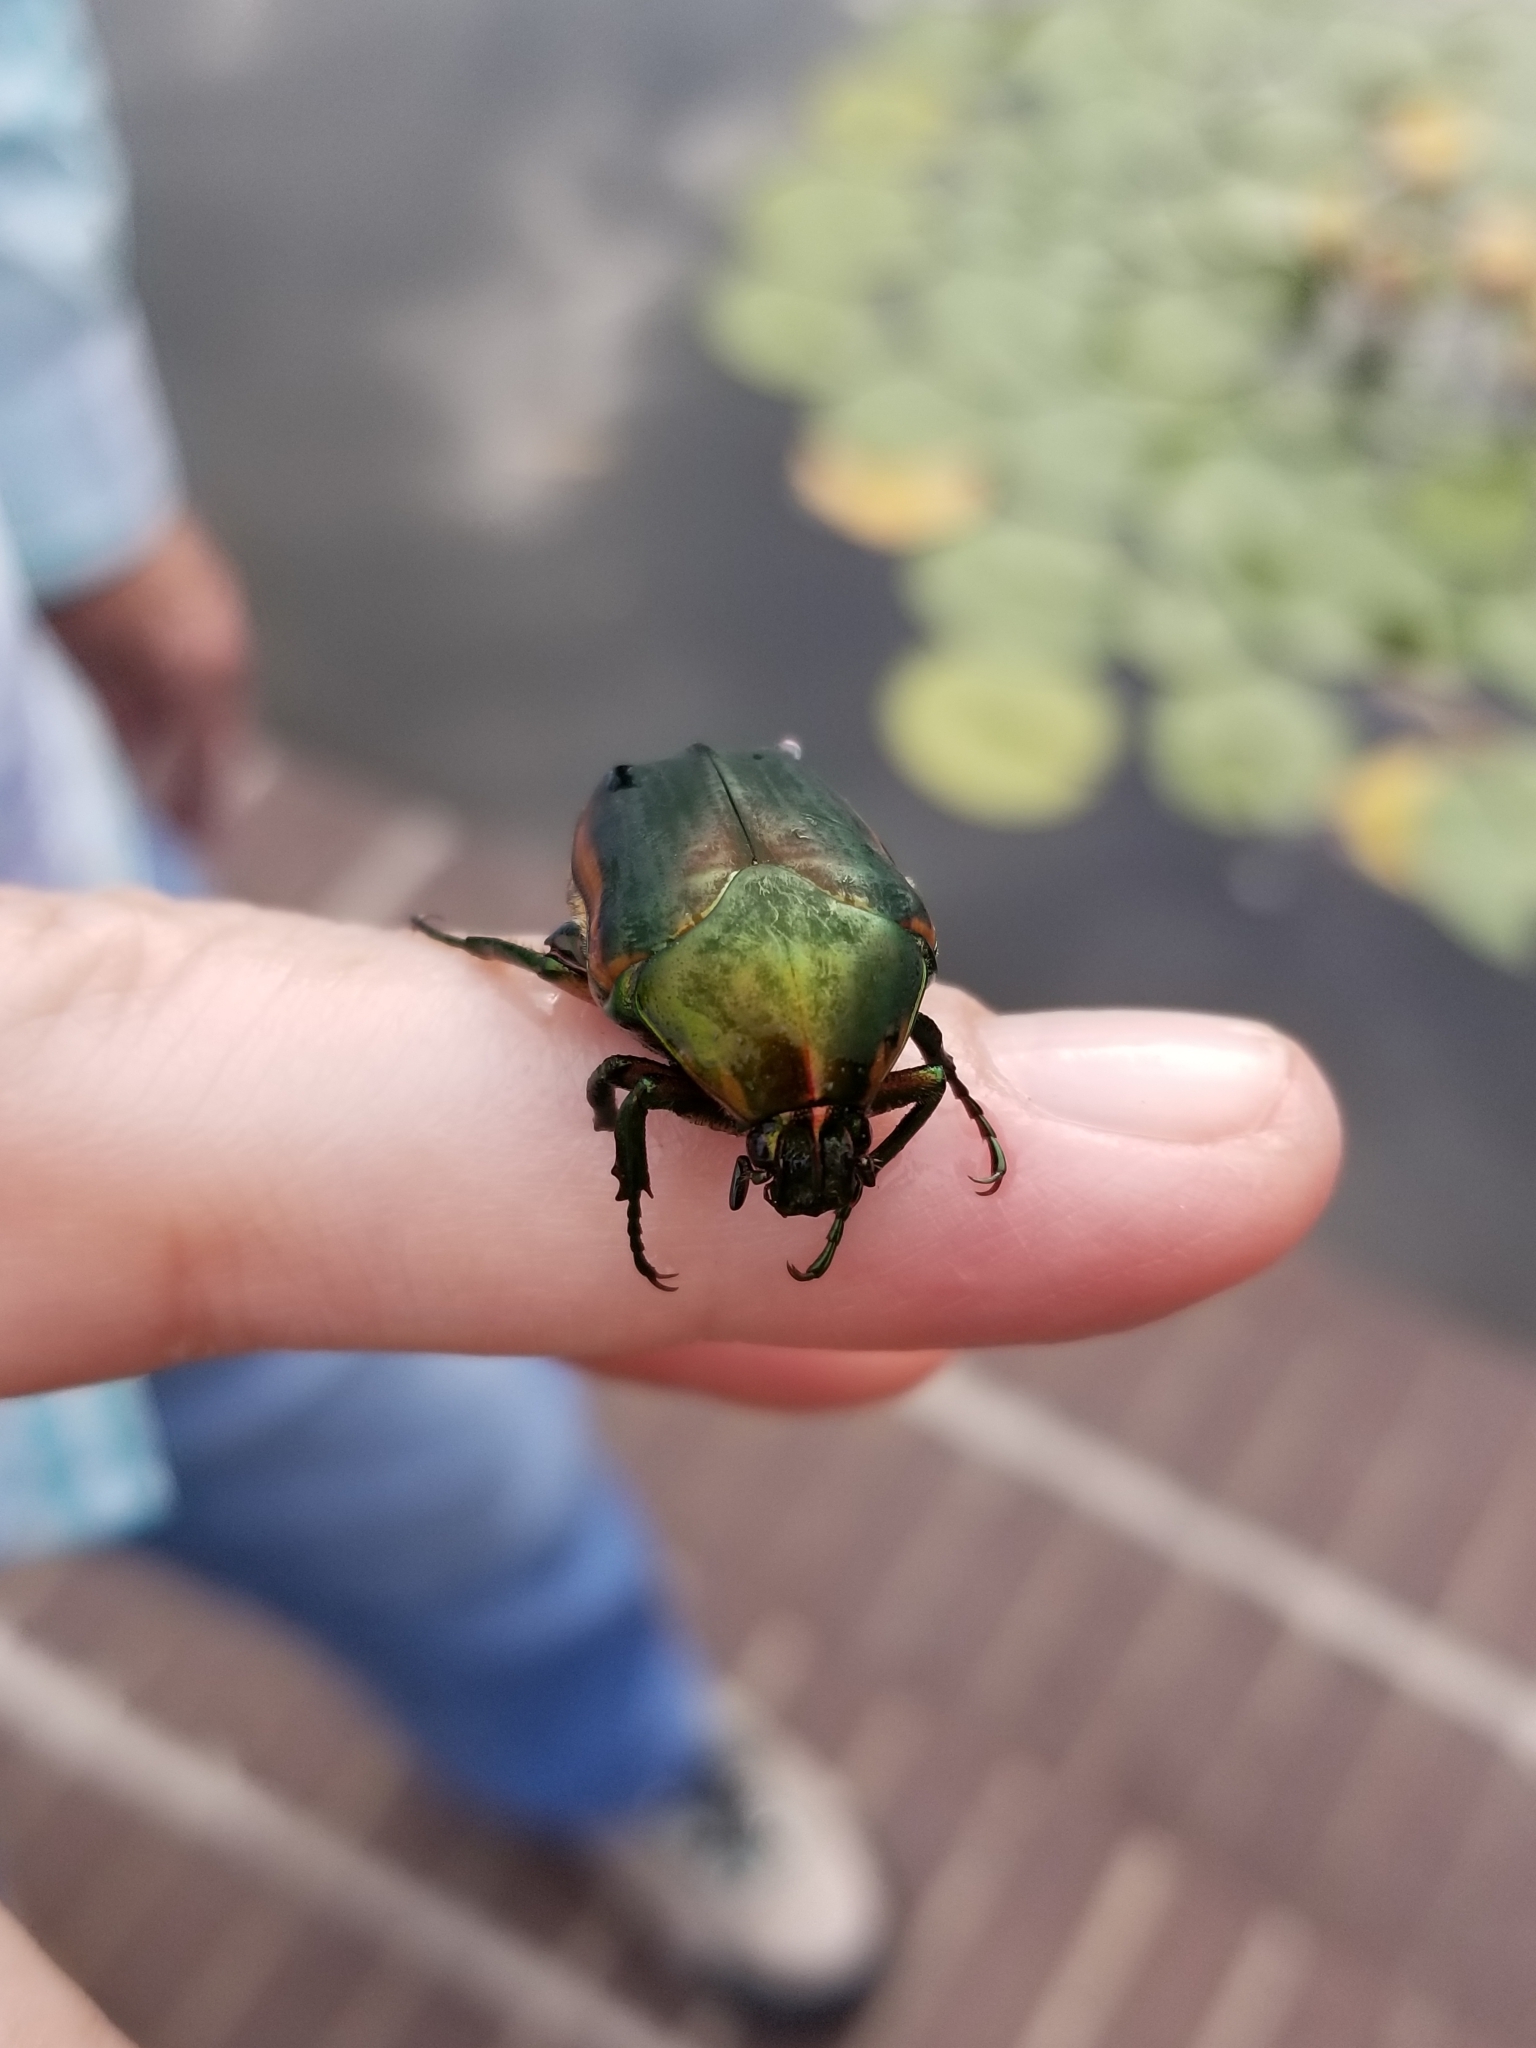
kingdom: Animalia
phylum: Arthropoda
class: Insecta
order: Coleoptera
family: Scarabaeidae
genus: Cotinis
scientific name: Cotinis nitida
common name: Common green june beetle
